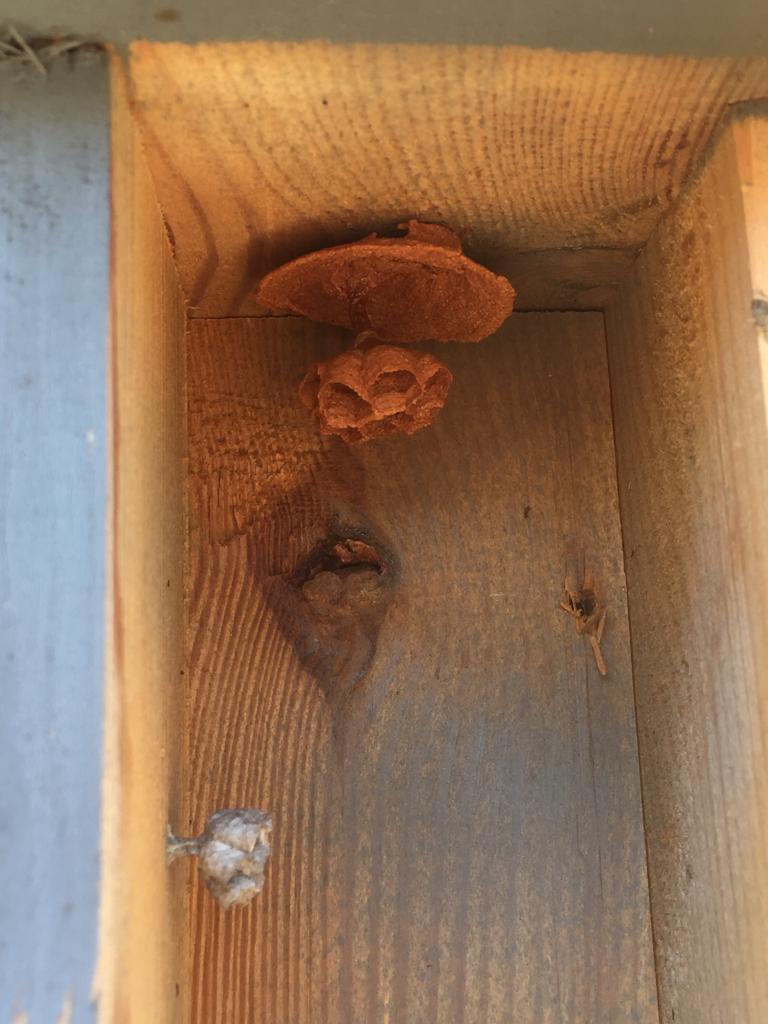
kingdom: Animalia
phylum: Arthropoda
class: Insecta
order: Hymenoptera
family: Vespidae
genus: Vespa
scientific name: Vespa crabro
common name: Hornet
